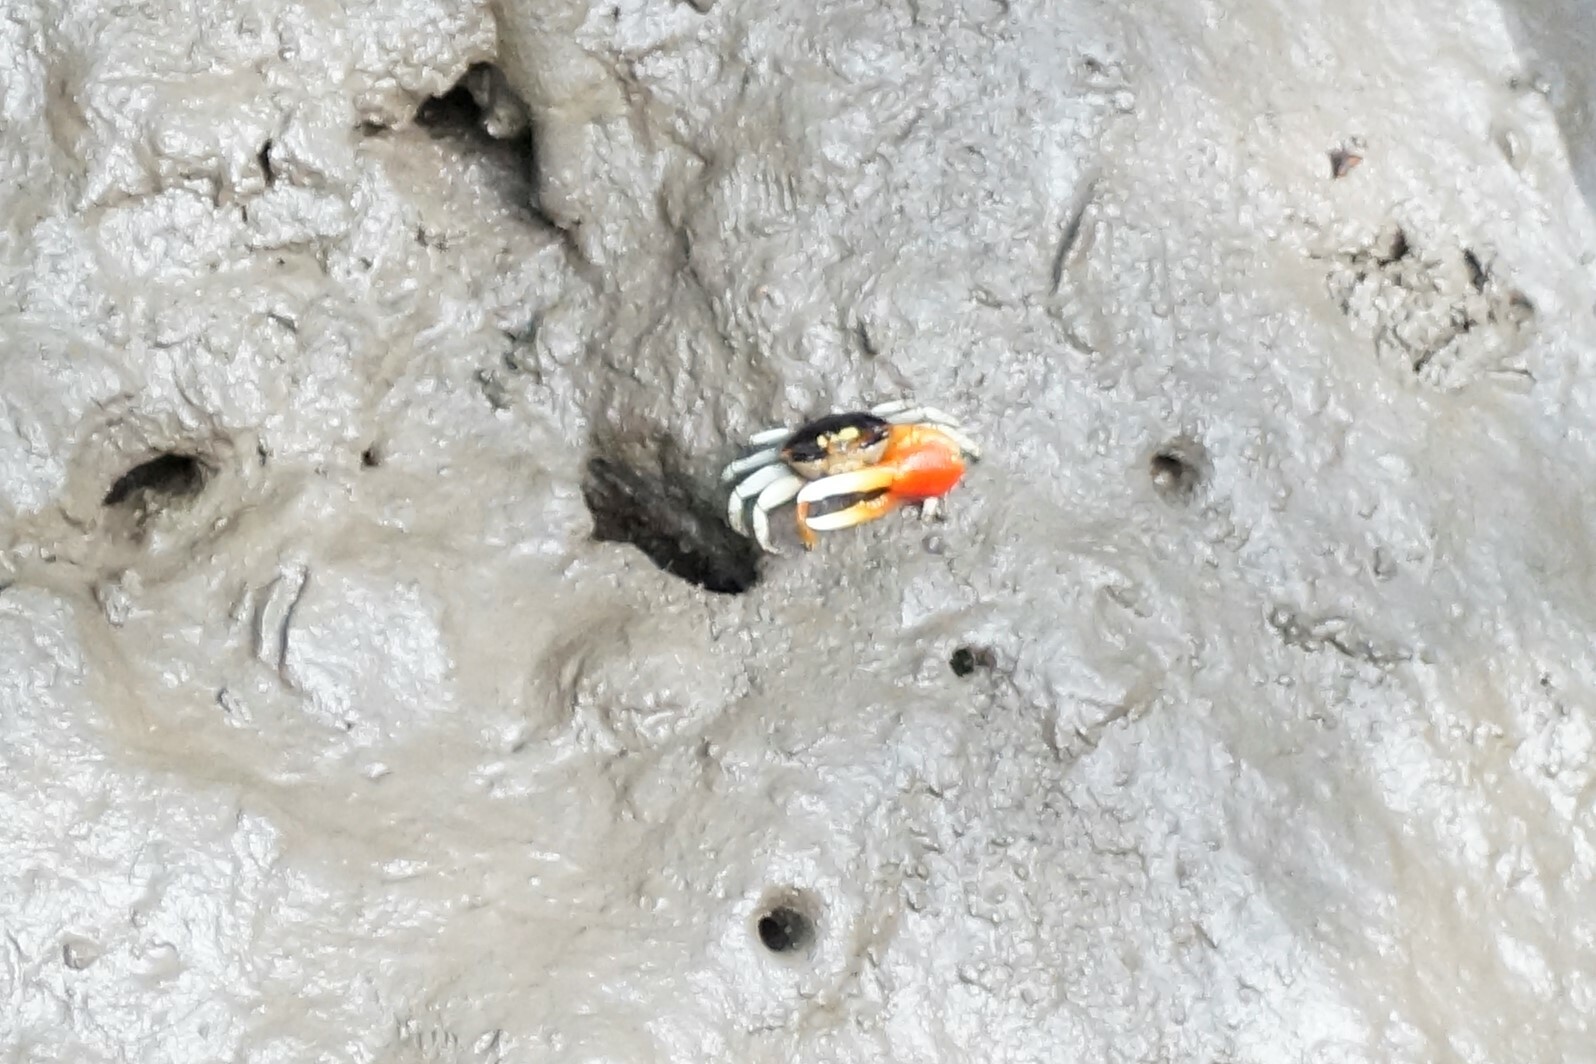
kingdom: Animalia
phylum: Arthropoda
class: Malacostraca
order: Decapoda
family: Ocypodidae
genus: Tubuca
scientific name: Tubuca coarctata
